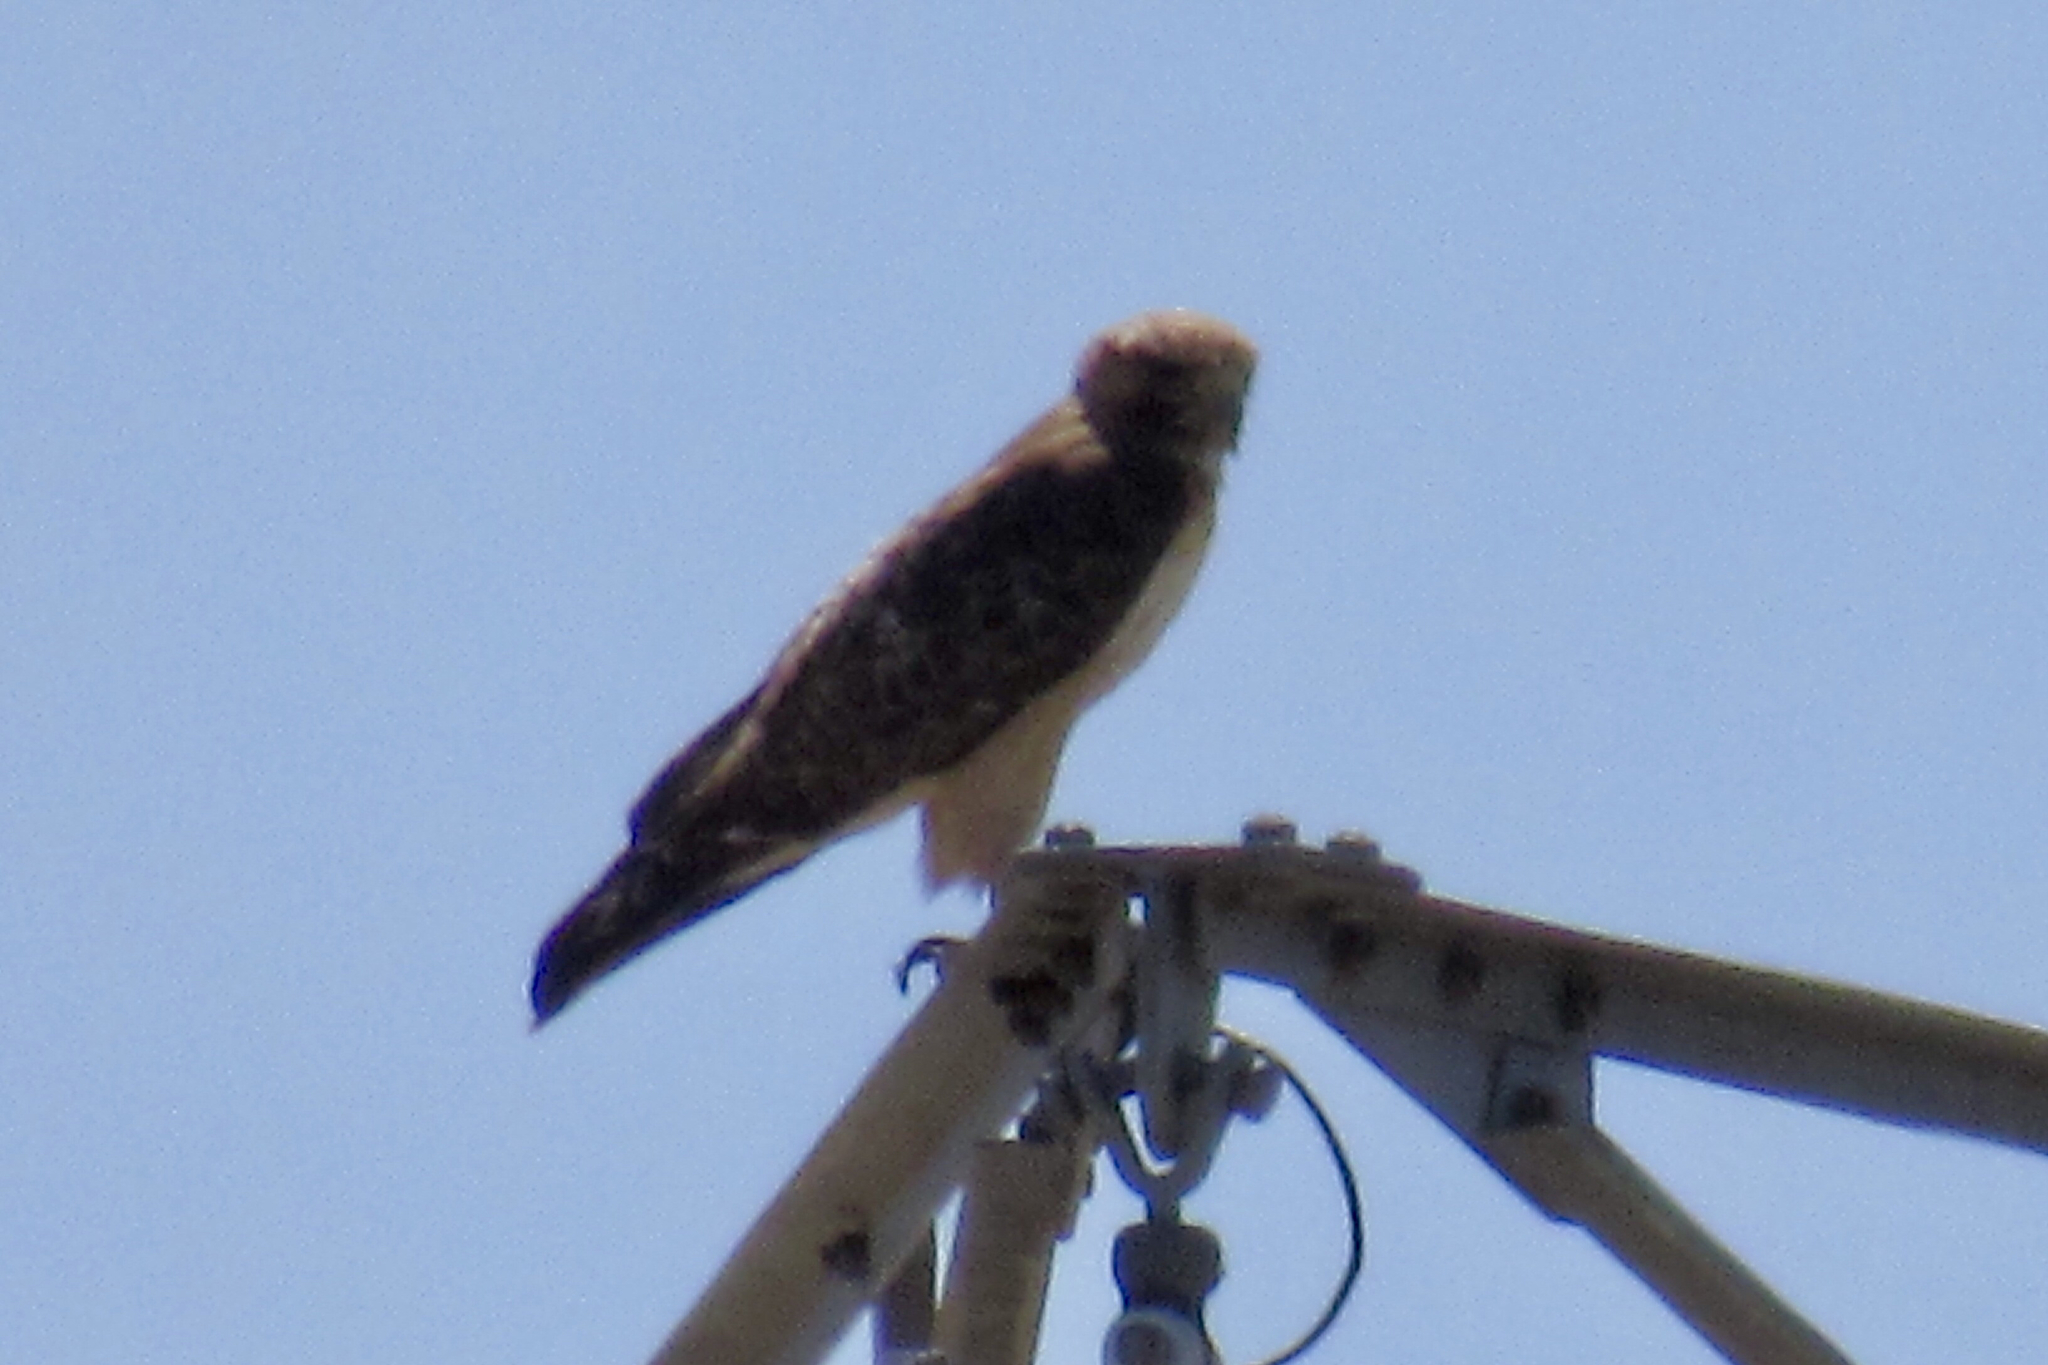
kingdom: Animalia
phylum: Chordata
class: Aves
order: Accipitriformes
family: Accipitridae
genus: Buteo
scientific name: Buteo jamaicensis
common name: Red-tailed hawk
